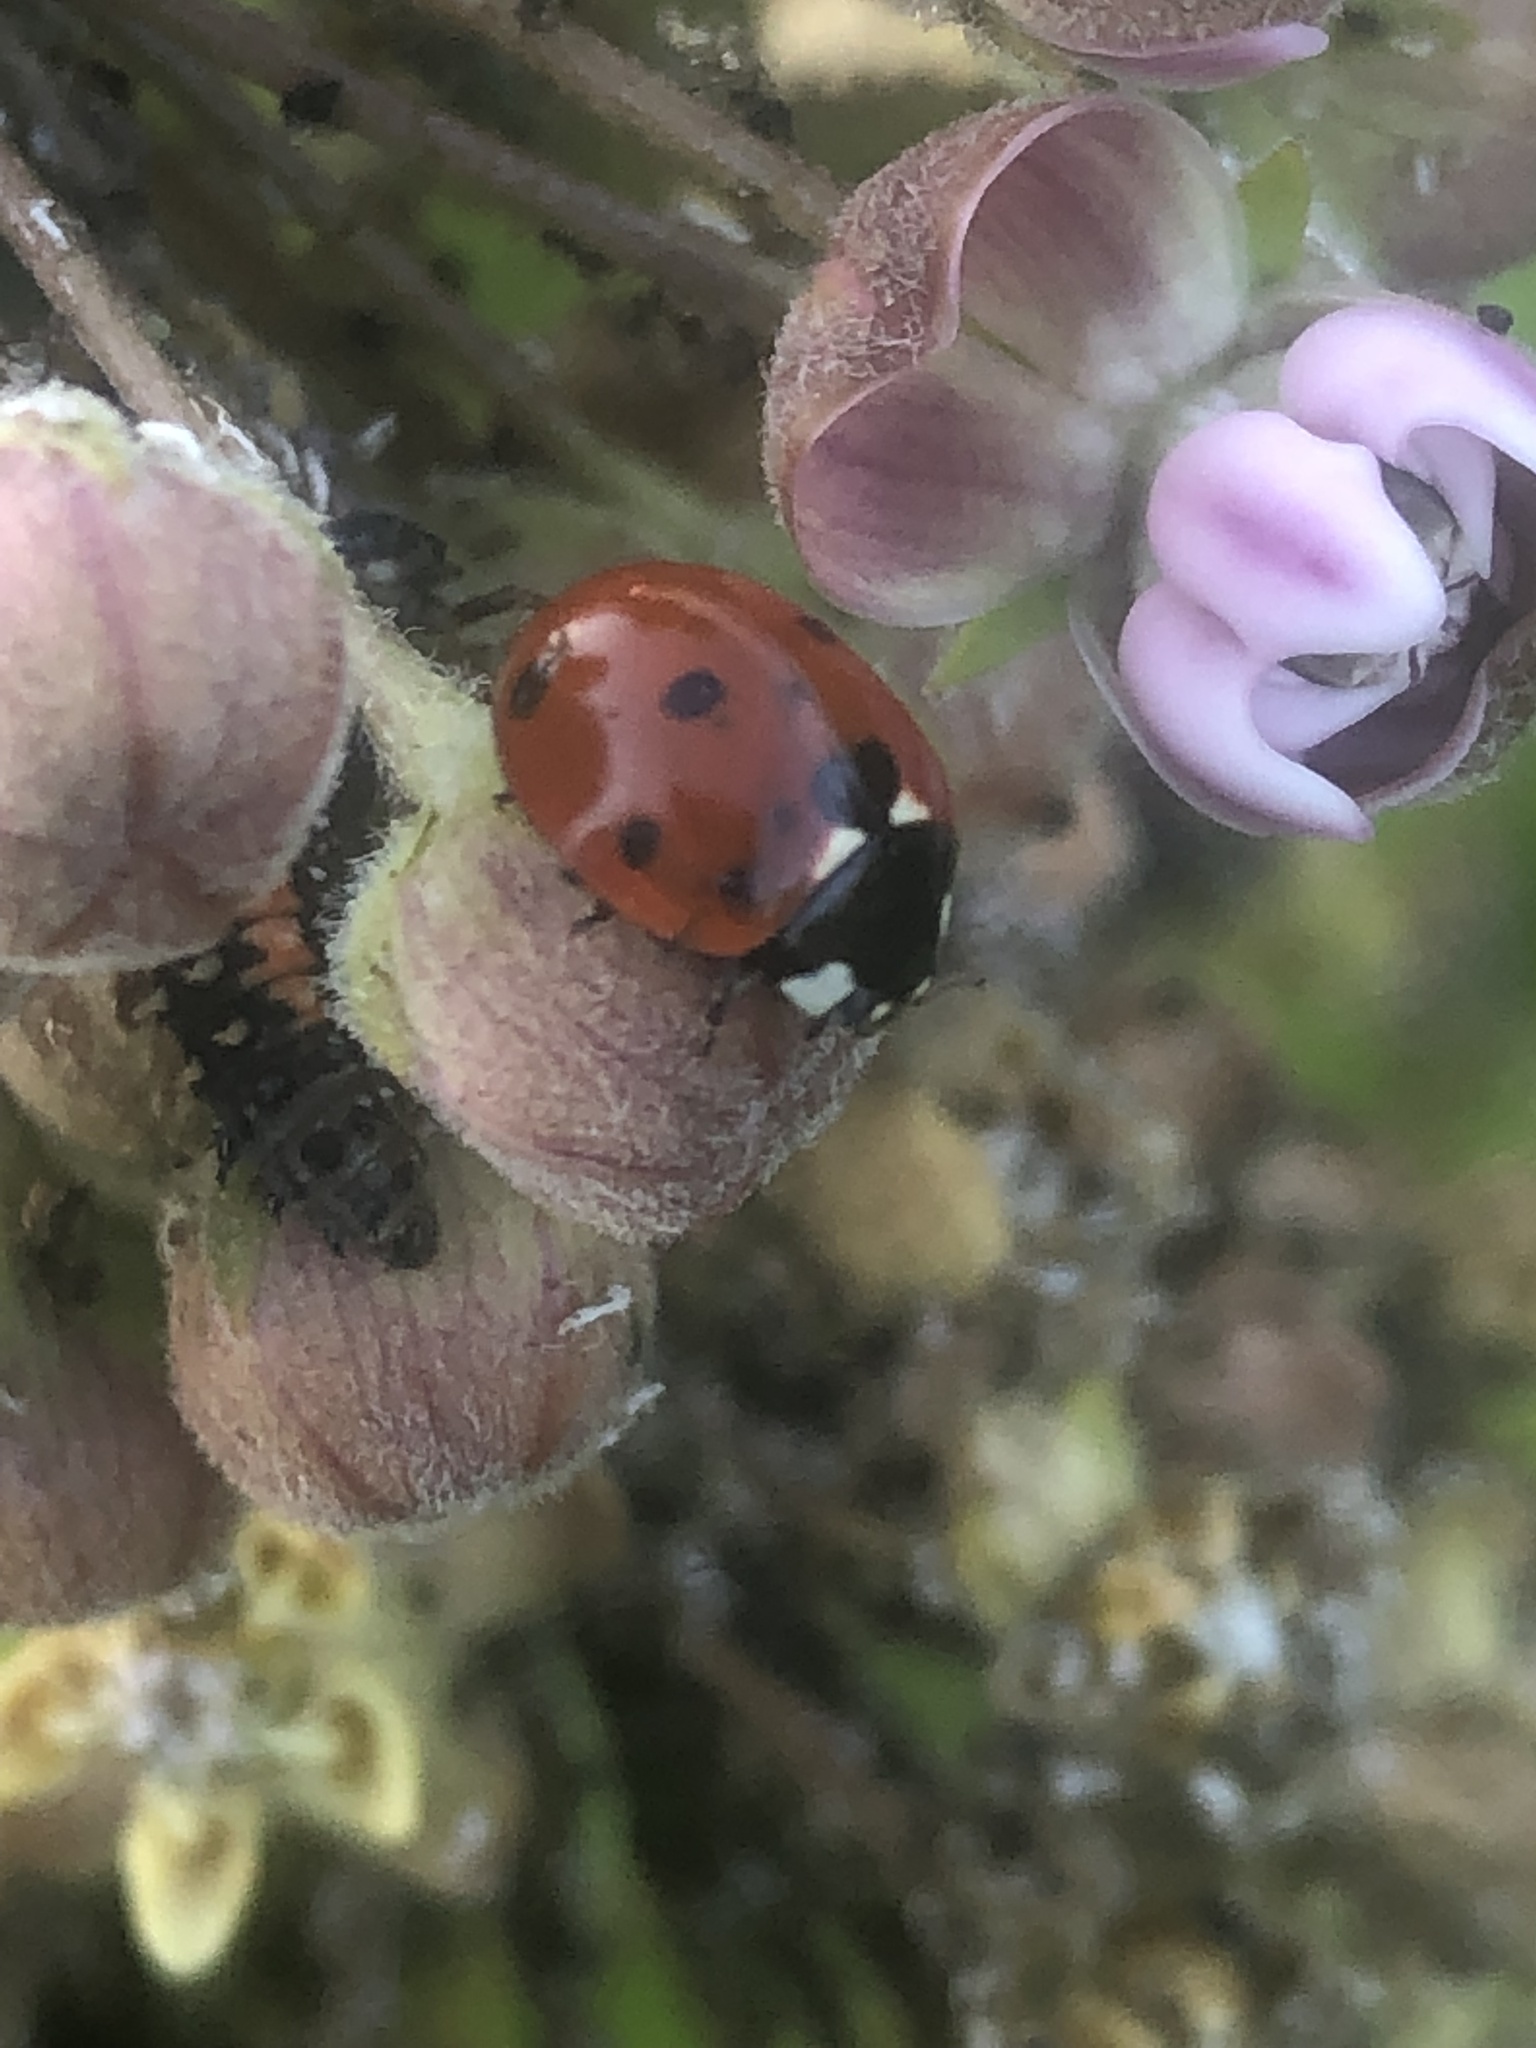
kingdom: Animalia
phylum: Arthropoda
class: Insecta
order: Coleoptera
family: Coccinellidae
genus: Coccinella
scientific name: Coccinella septempunctata
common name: Sevenspotted lady beetle
